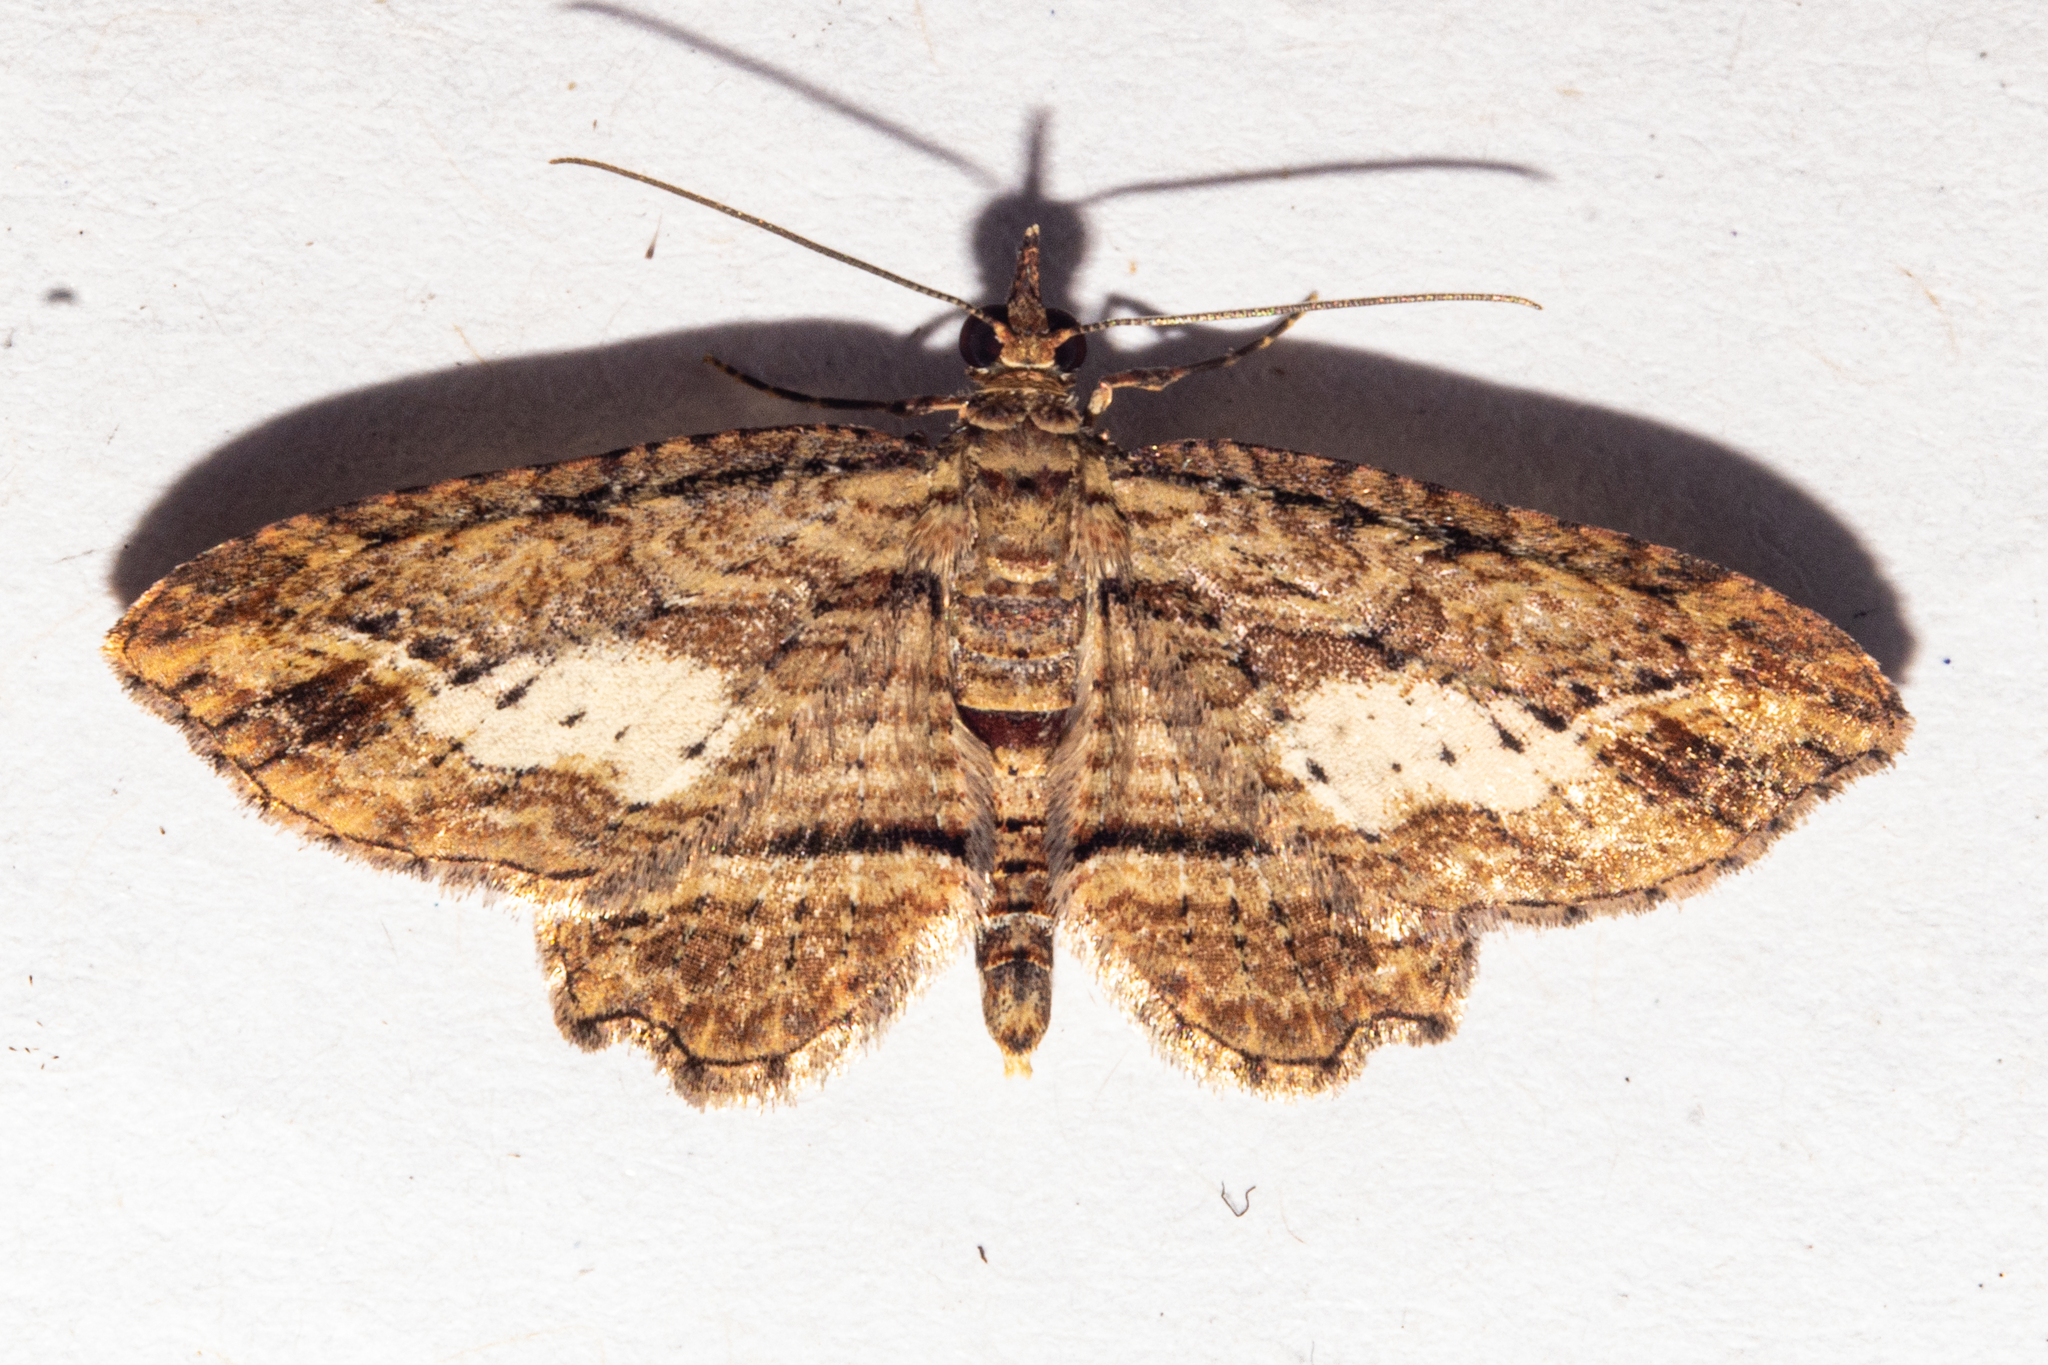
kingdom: Animalia
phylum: Arthropoda
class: Insecta
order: Lepidoptera
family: Geometridae
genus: Chloroclystis
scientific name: Chloroclystis filata
